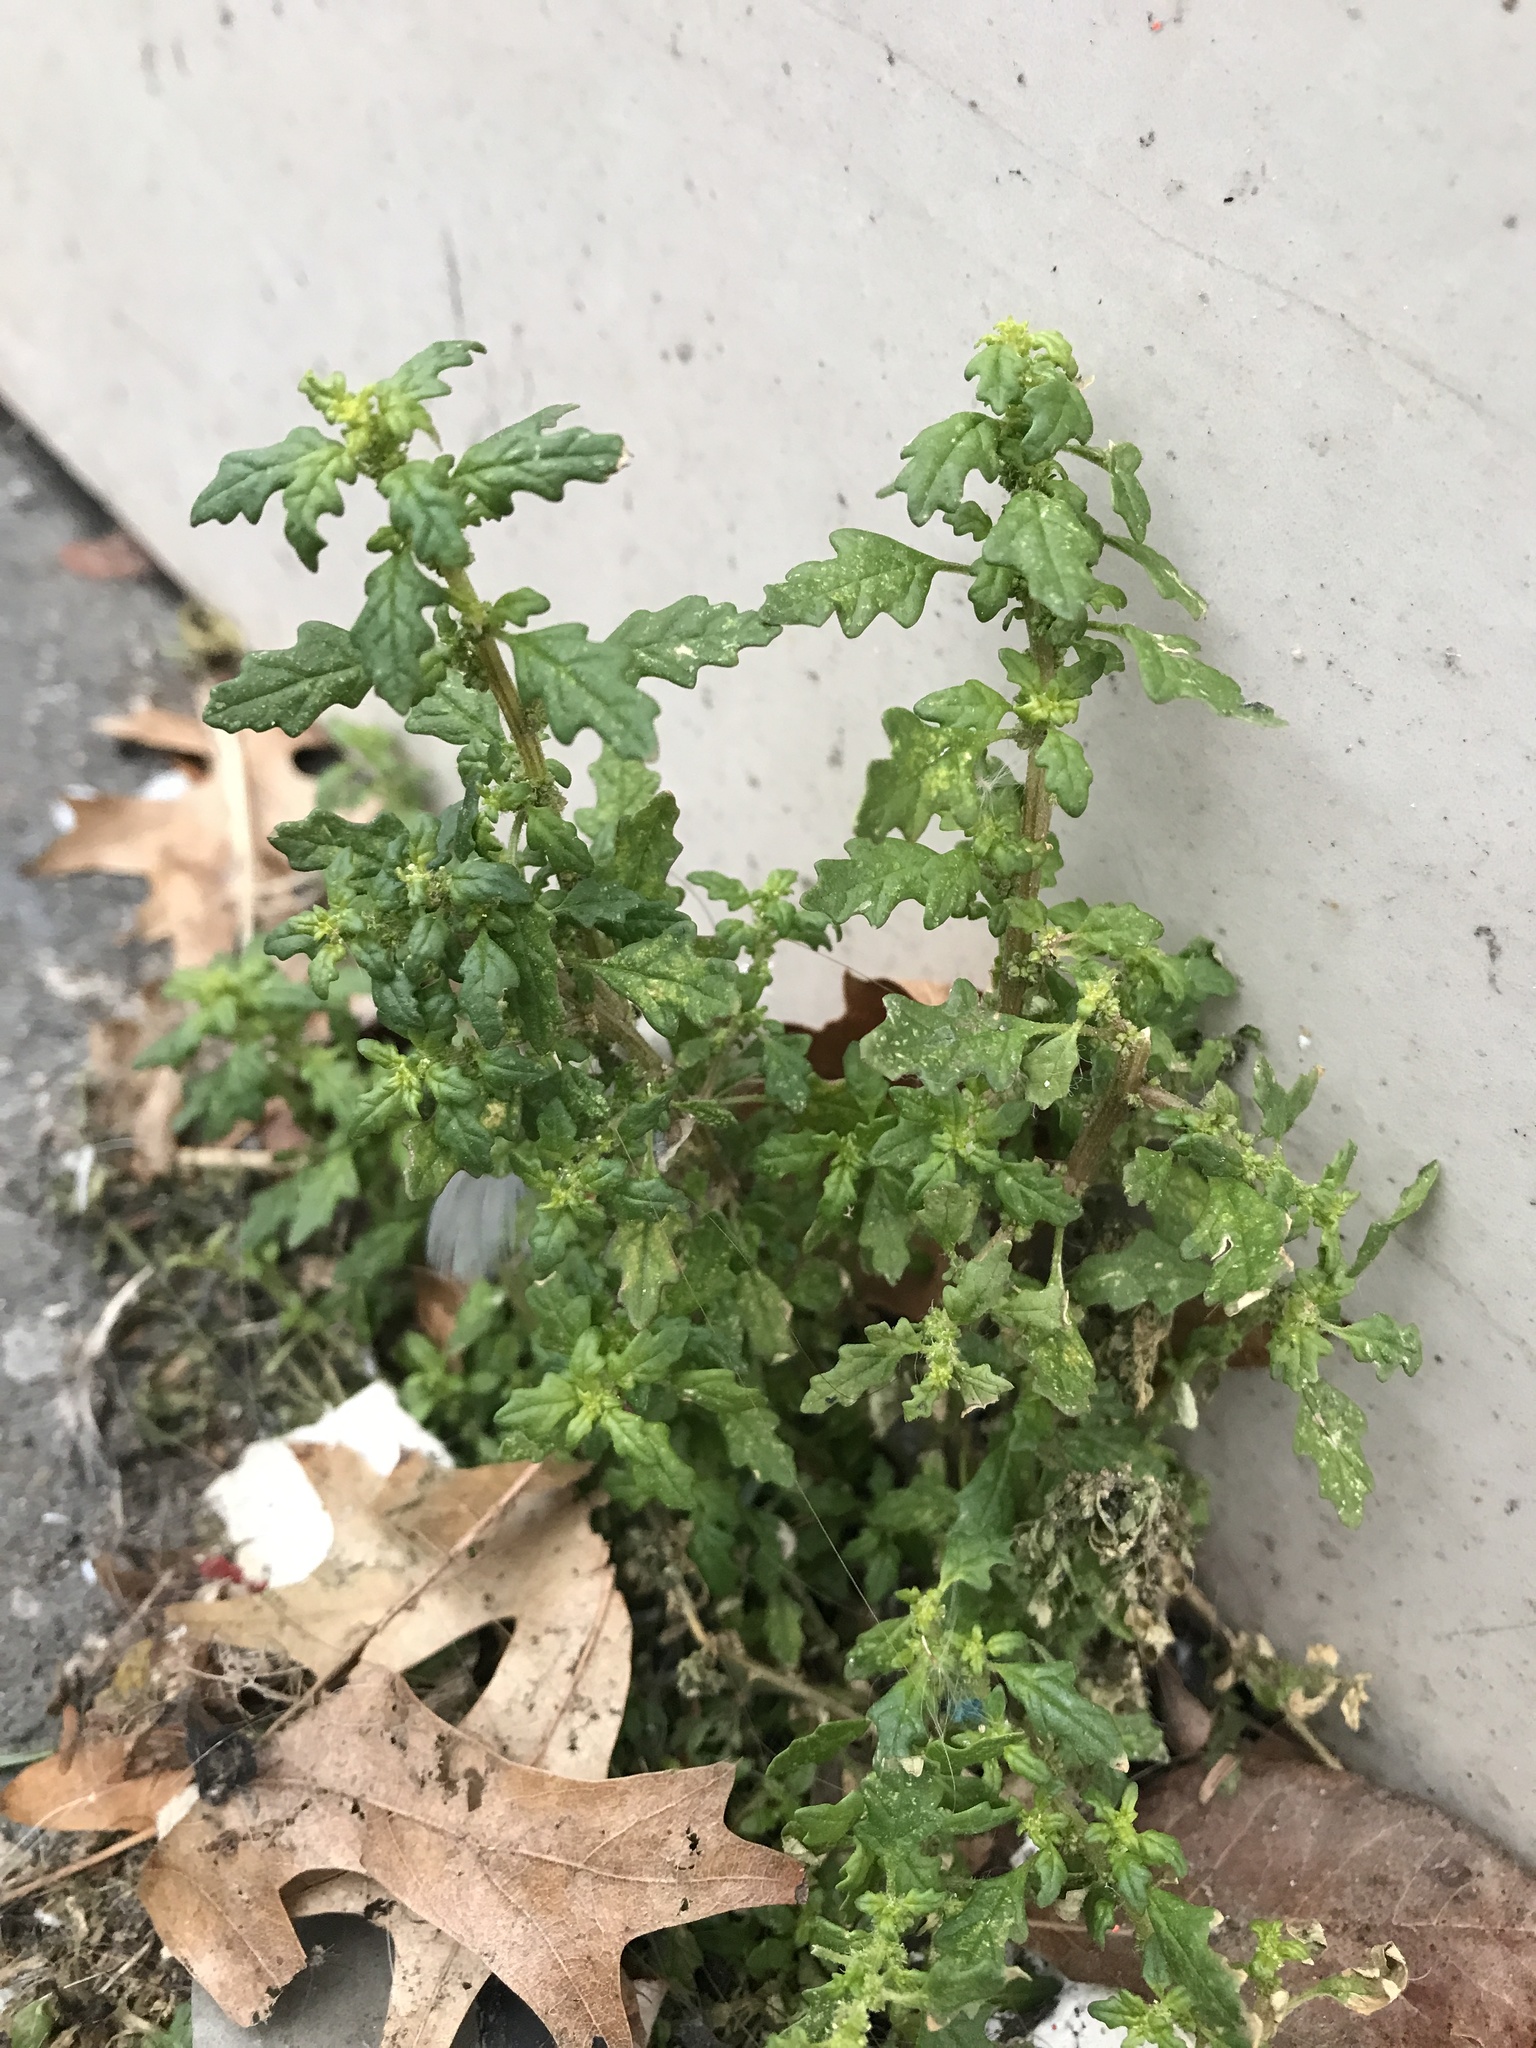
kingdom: Plantae
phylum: Tracheophyta
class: Magnoliopsida
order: Caryophyllales
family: Amaranthaceae
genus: Dysphania
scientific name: Dysphania pumilio
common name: Clammy goosefoot
